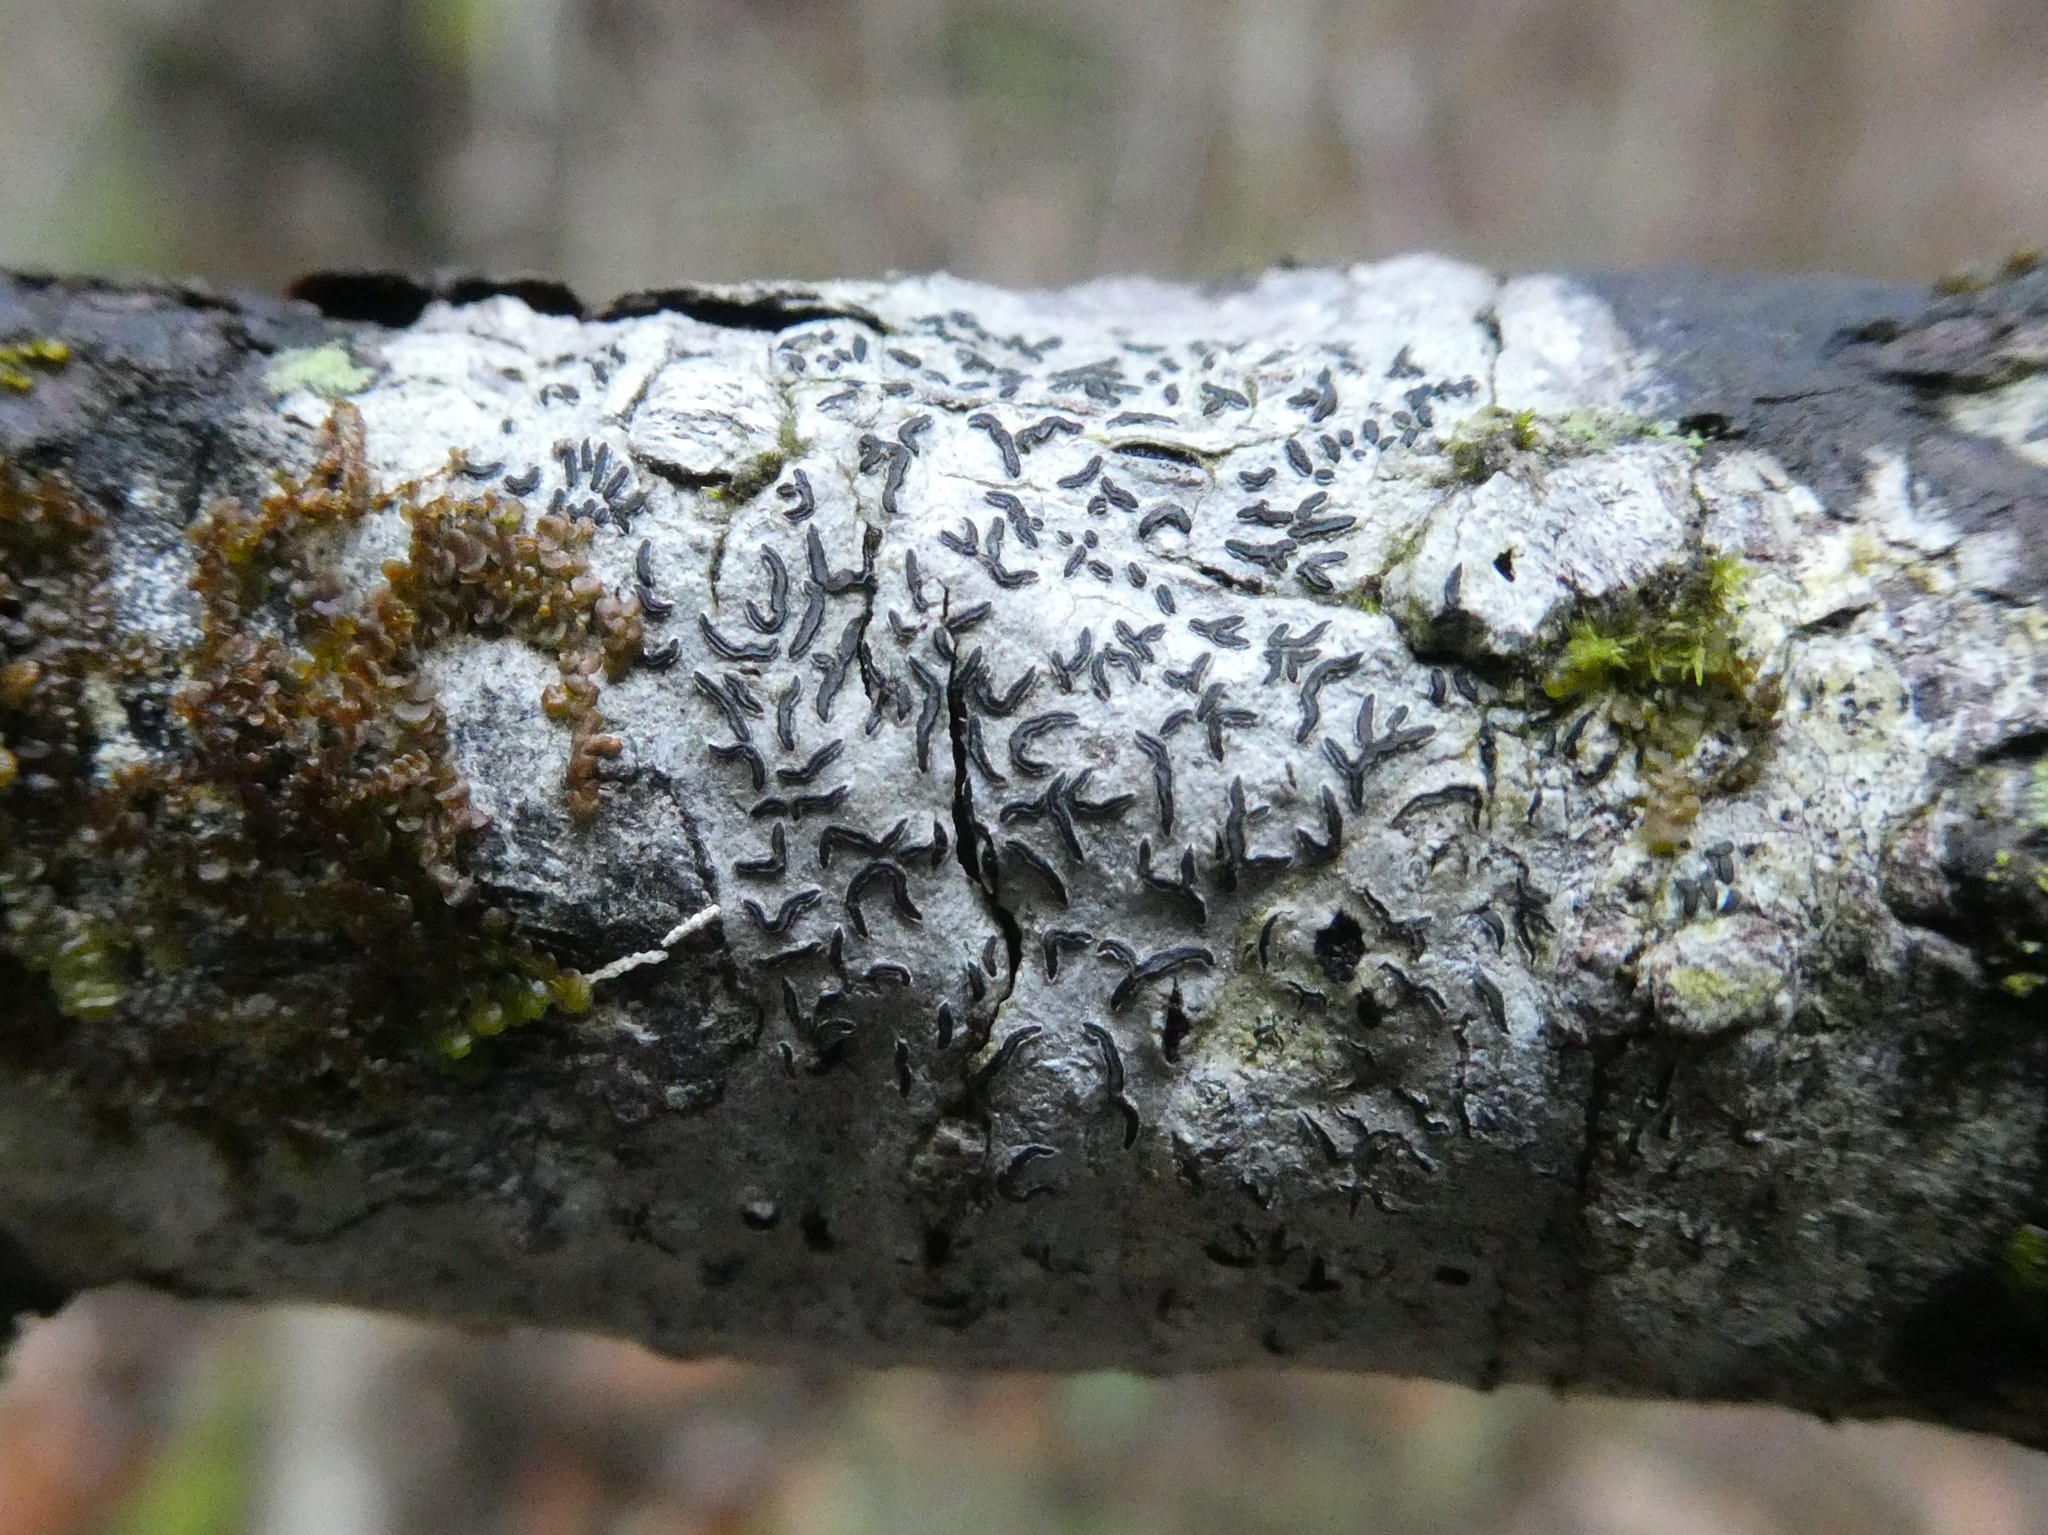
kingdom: Fungi
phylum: Ascomycota
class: Lecanoromycetes
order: Ostropales
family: Graphidaceae
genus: Graphis
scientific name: Graphis scripta
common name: Script lichen
